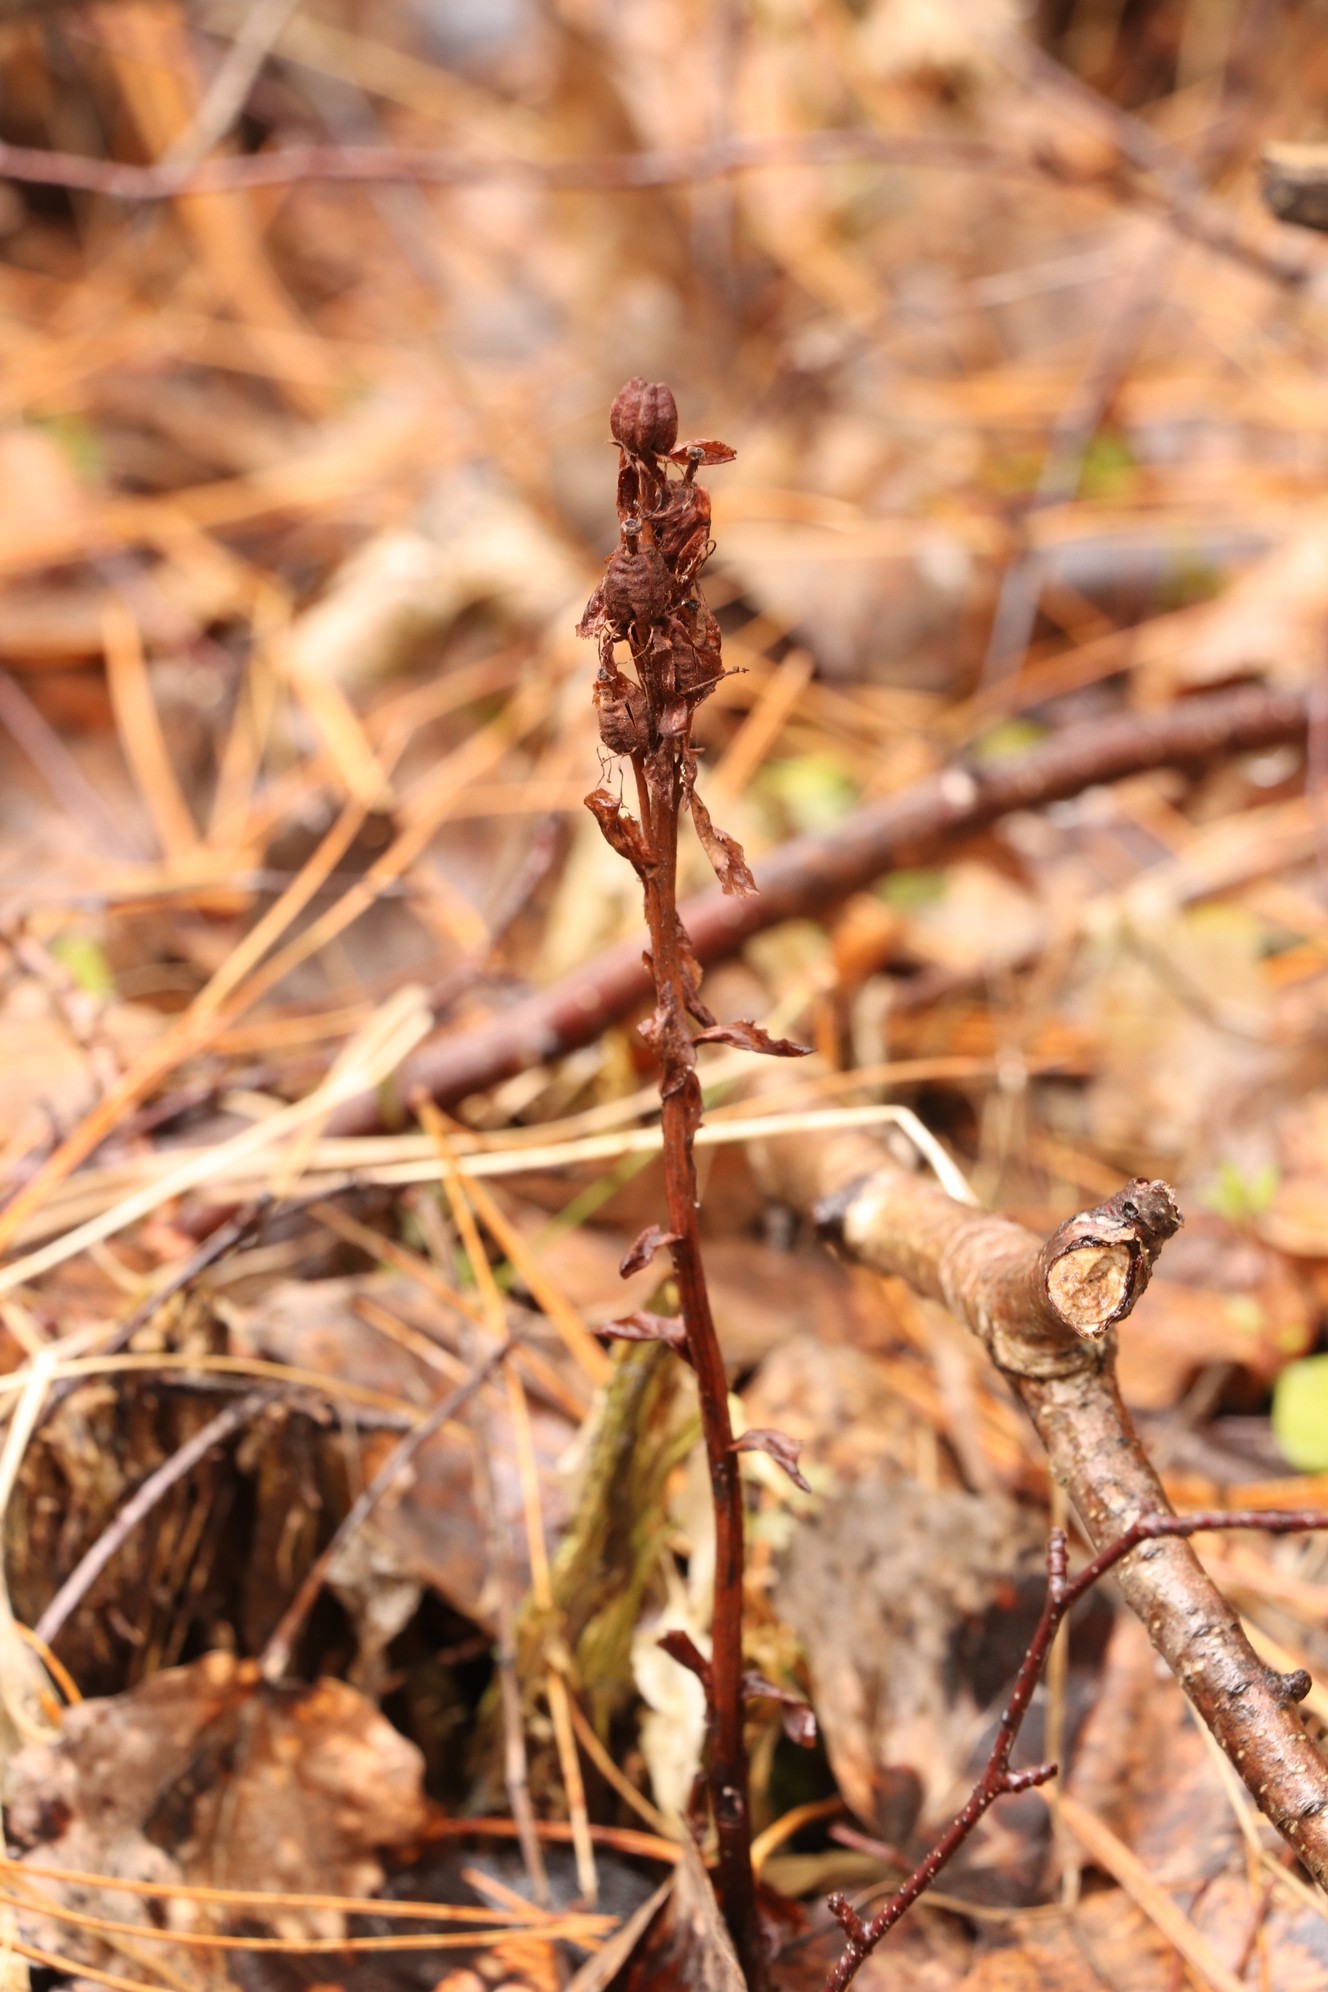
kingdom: Plantae
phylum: Tracheophyta
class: Magnoliopsida
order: Ericales
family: Ericaceae
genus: Hypopitys
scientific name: Hypopitys monotropa
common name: Yellow bird's-nest
